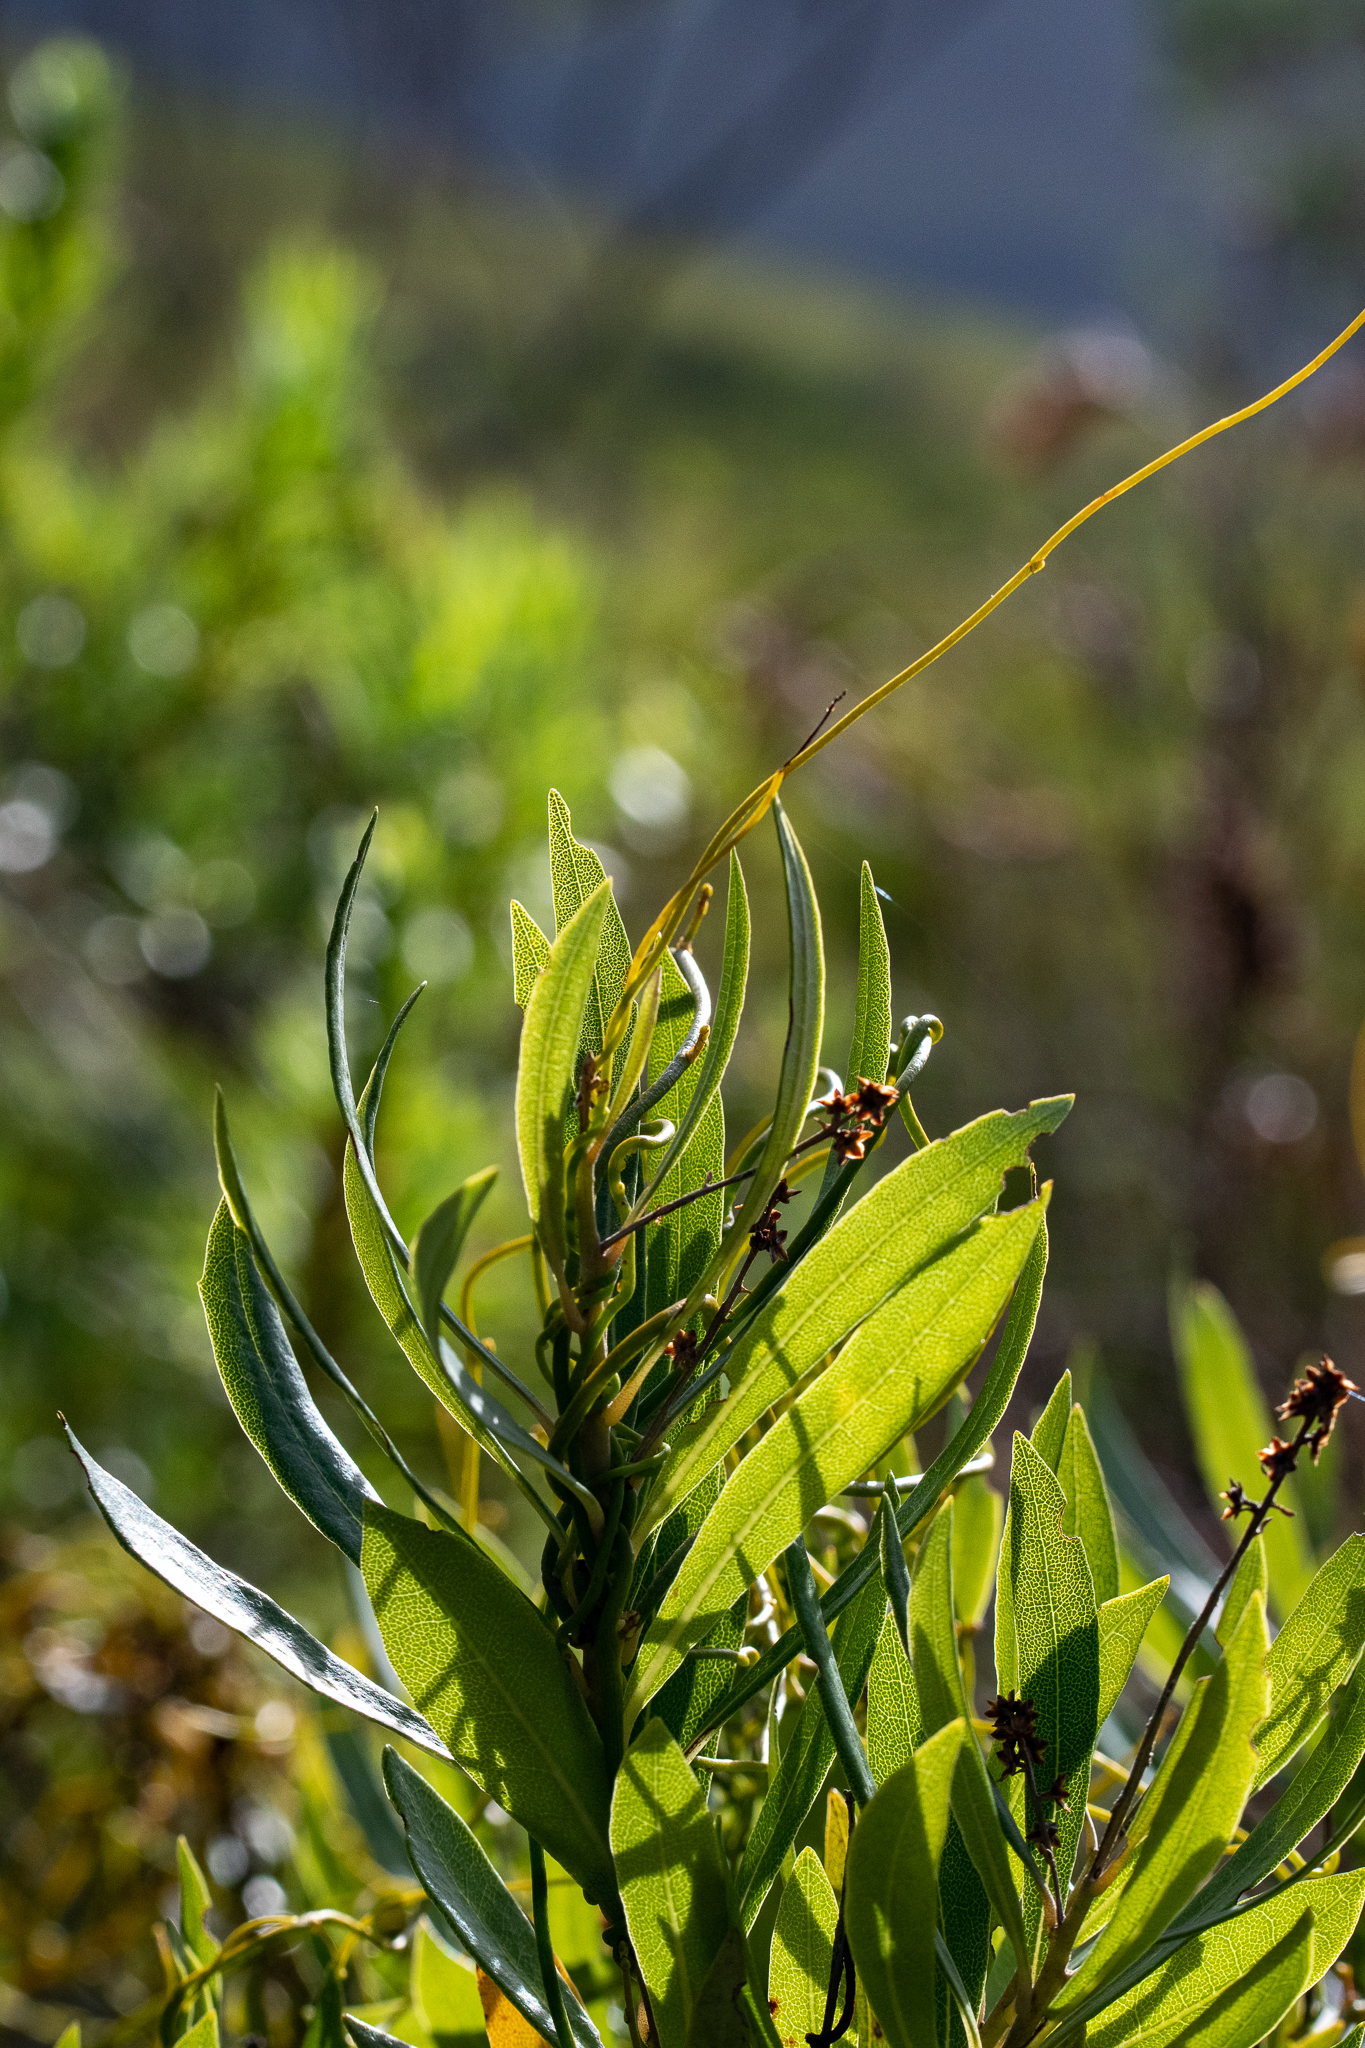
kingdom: Plantae
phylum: Tracheophyta
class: Magnoliopsida
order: Asterales
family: Asteraceae
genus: Brachylaena
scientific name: Brachylaena neriifolia
